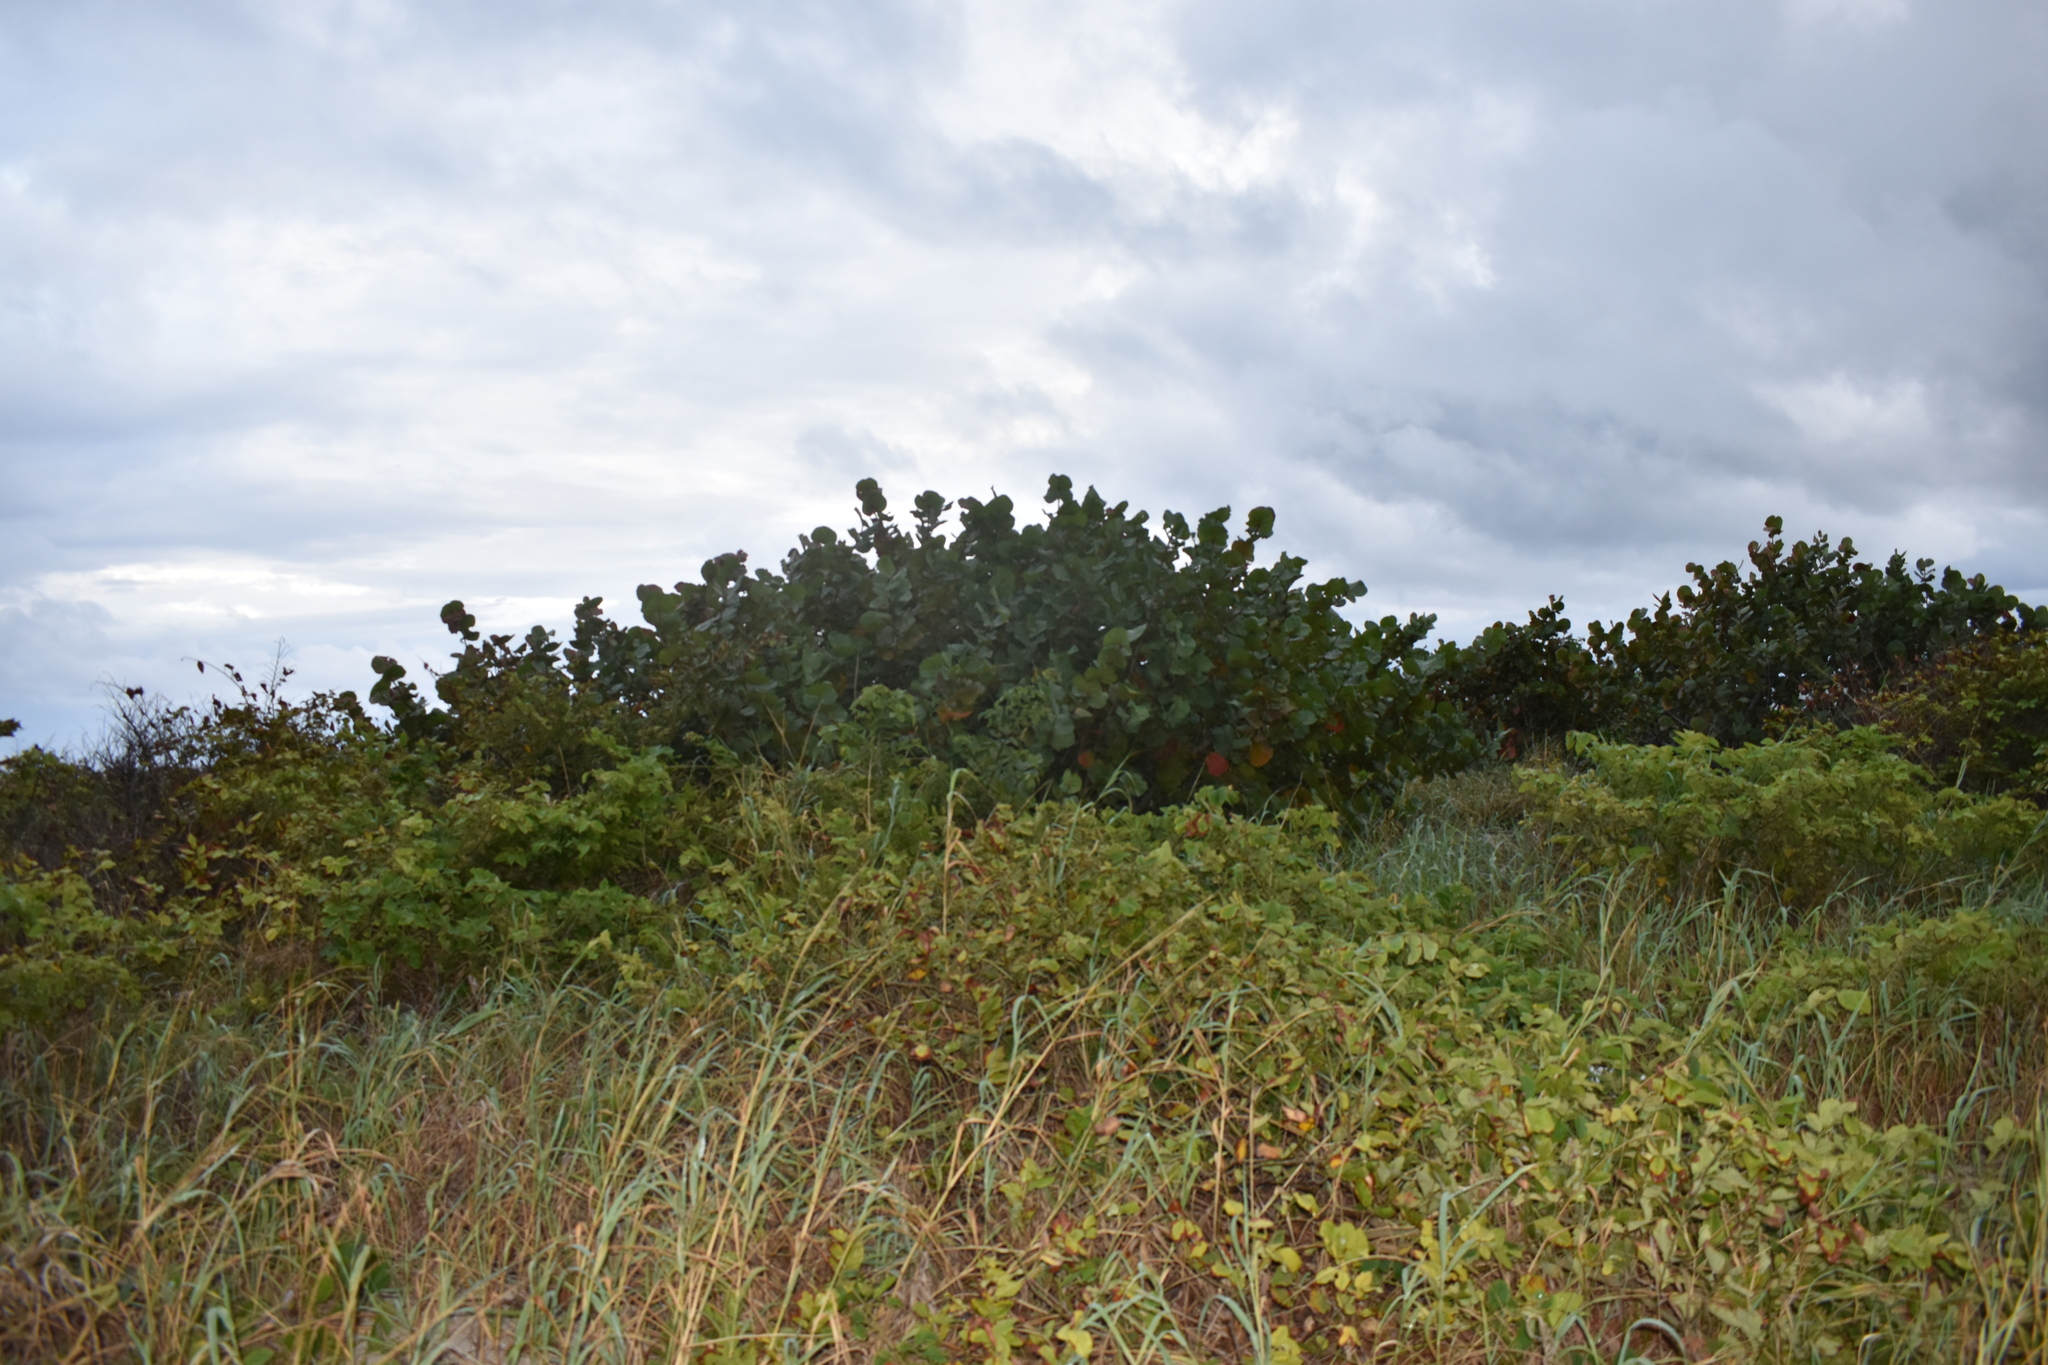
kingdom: Plantae
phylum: Tracheophyta
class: Magnoliopsida
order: Caryophyllales
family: Polygonaceae
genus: Coccoloba
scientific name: Coccoloba uvifera
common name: Seagrape
